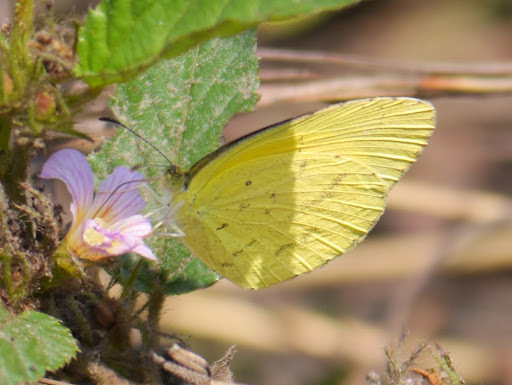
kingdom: Animalia
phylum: Arthropoda
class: Insecta
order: Lepidoptera
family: Pieridae
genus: Eurema
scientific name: Eurema brigitta
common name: Small grass yellow
